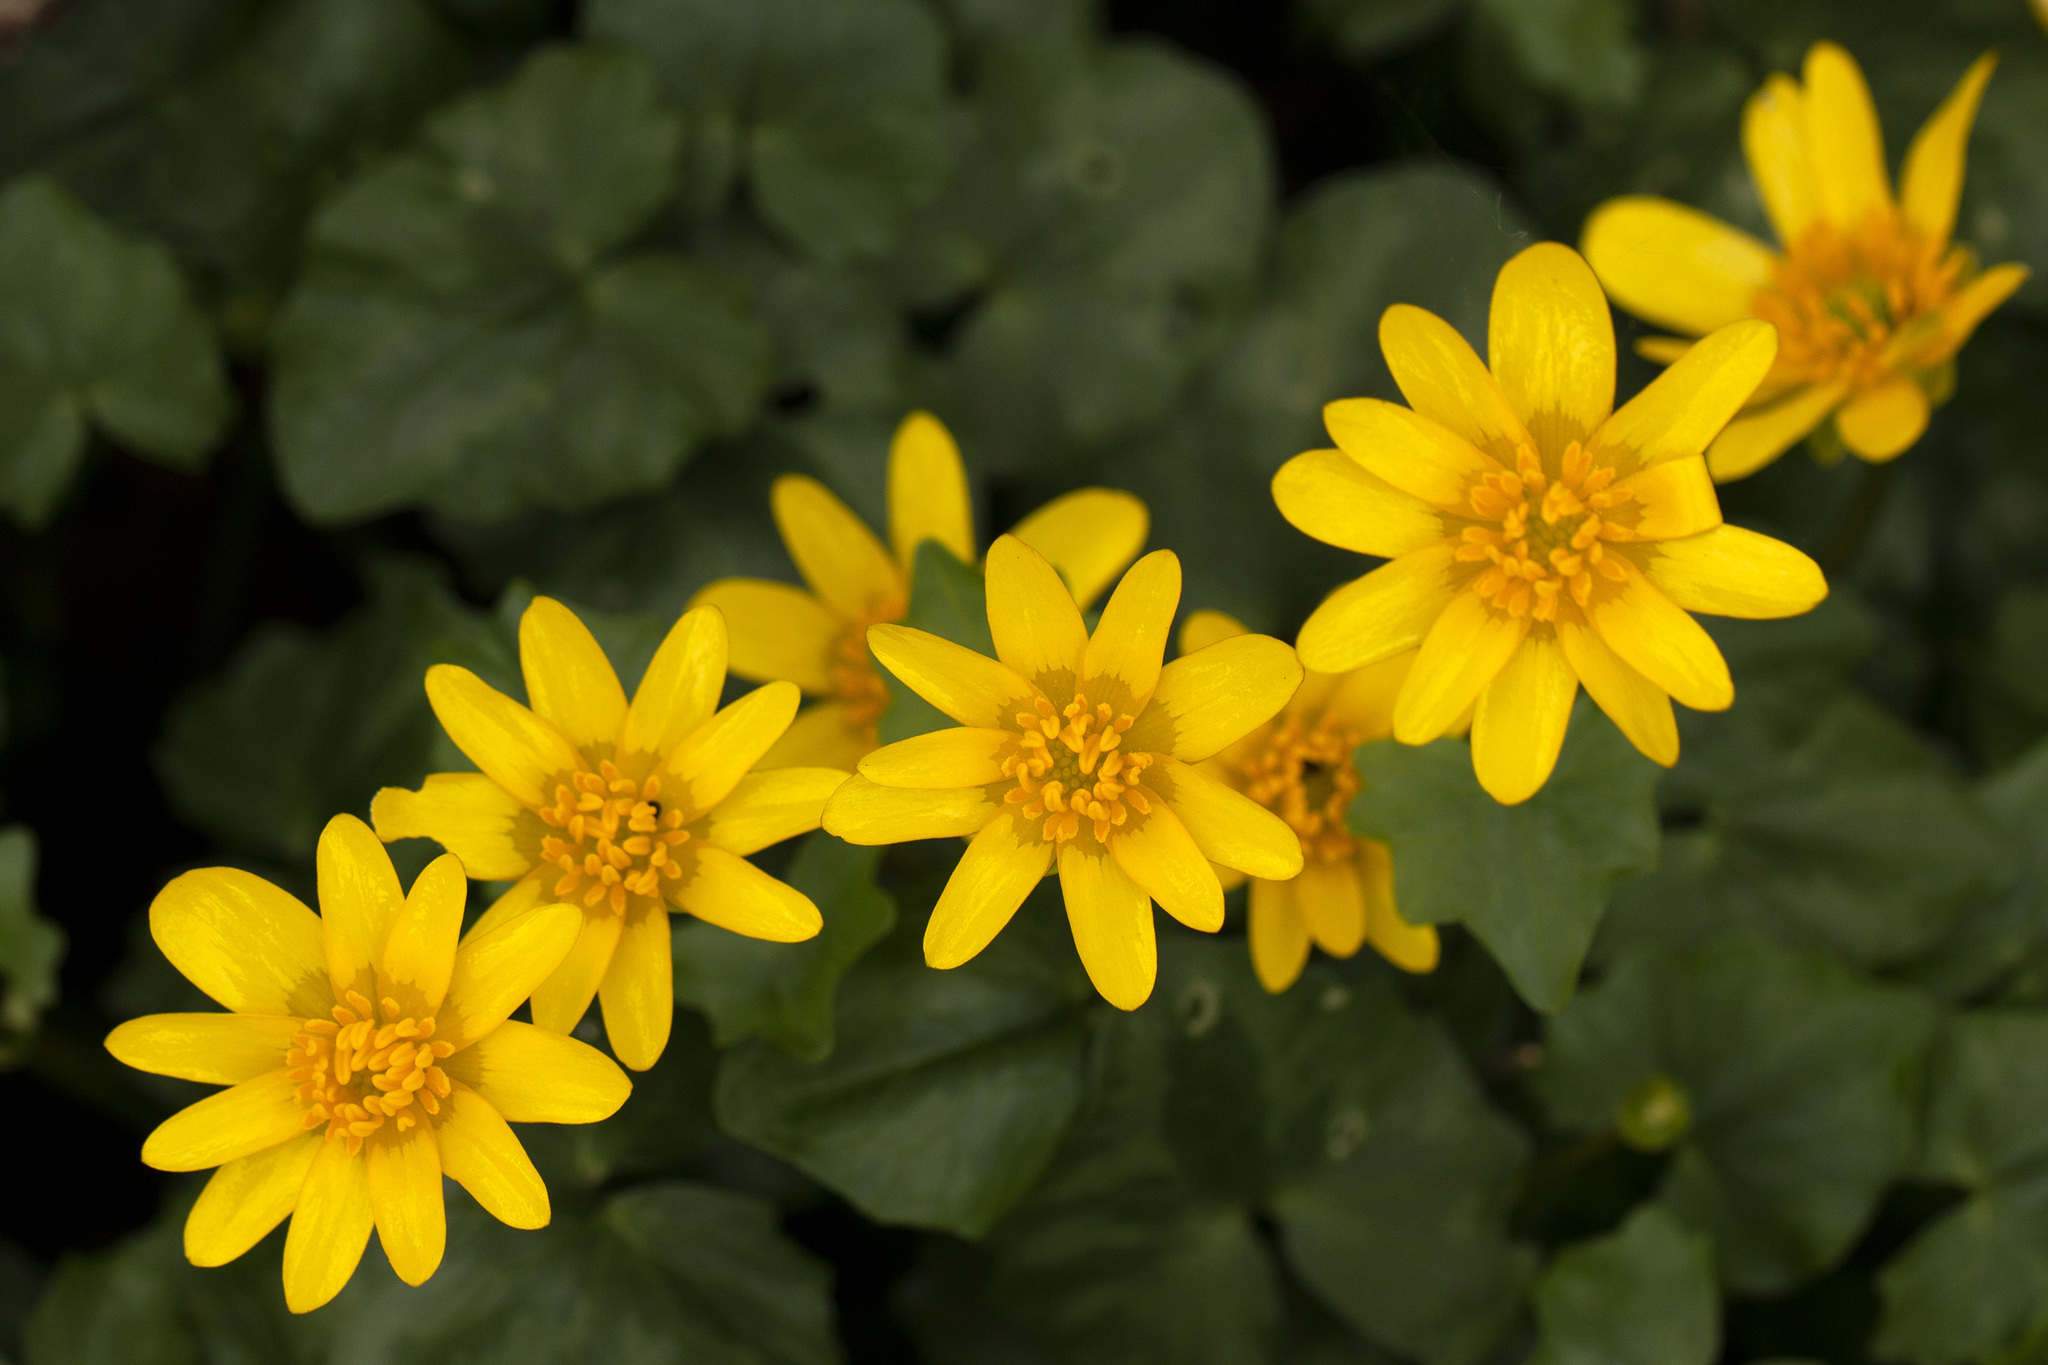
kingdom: Plantae
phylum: Tracheophyta
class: Magnoliopsida
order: Ranunculales
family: Ranunculaceae
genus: Ficaria
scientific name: Ficaria verna
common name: Lesser celandine
